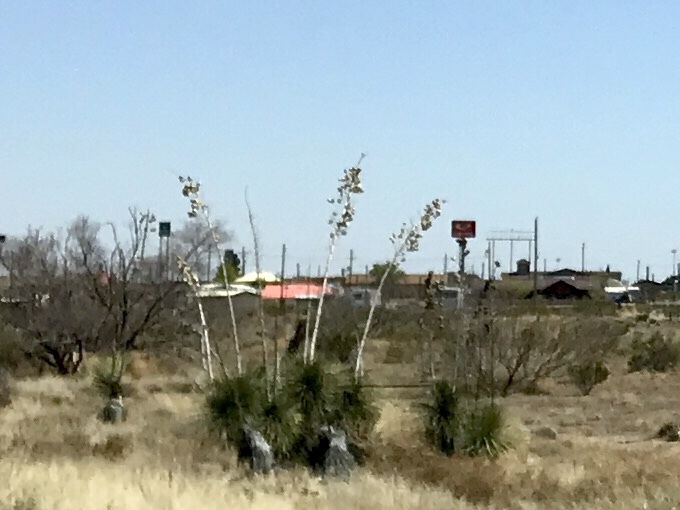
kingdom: Plantae
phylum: Tracheophyta
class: Liliopsida
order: Asparagales
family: Asparagaceae
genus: Yucca
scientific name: Yucca elata
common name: Palmella
